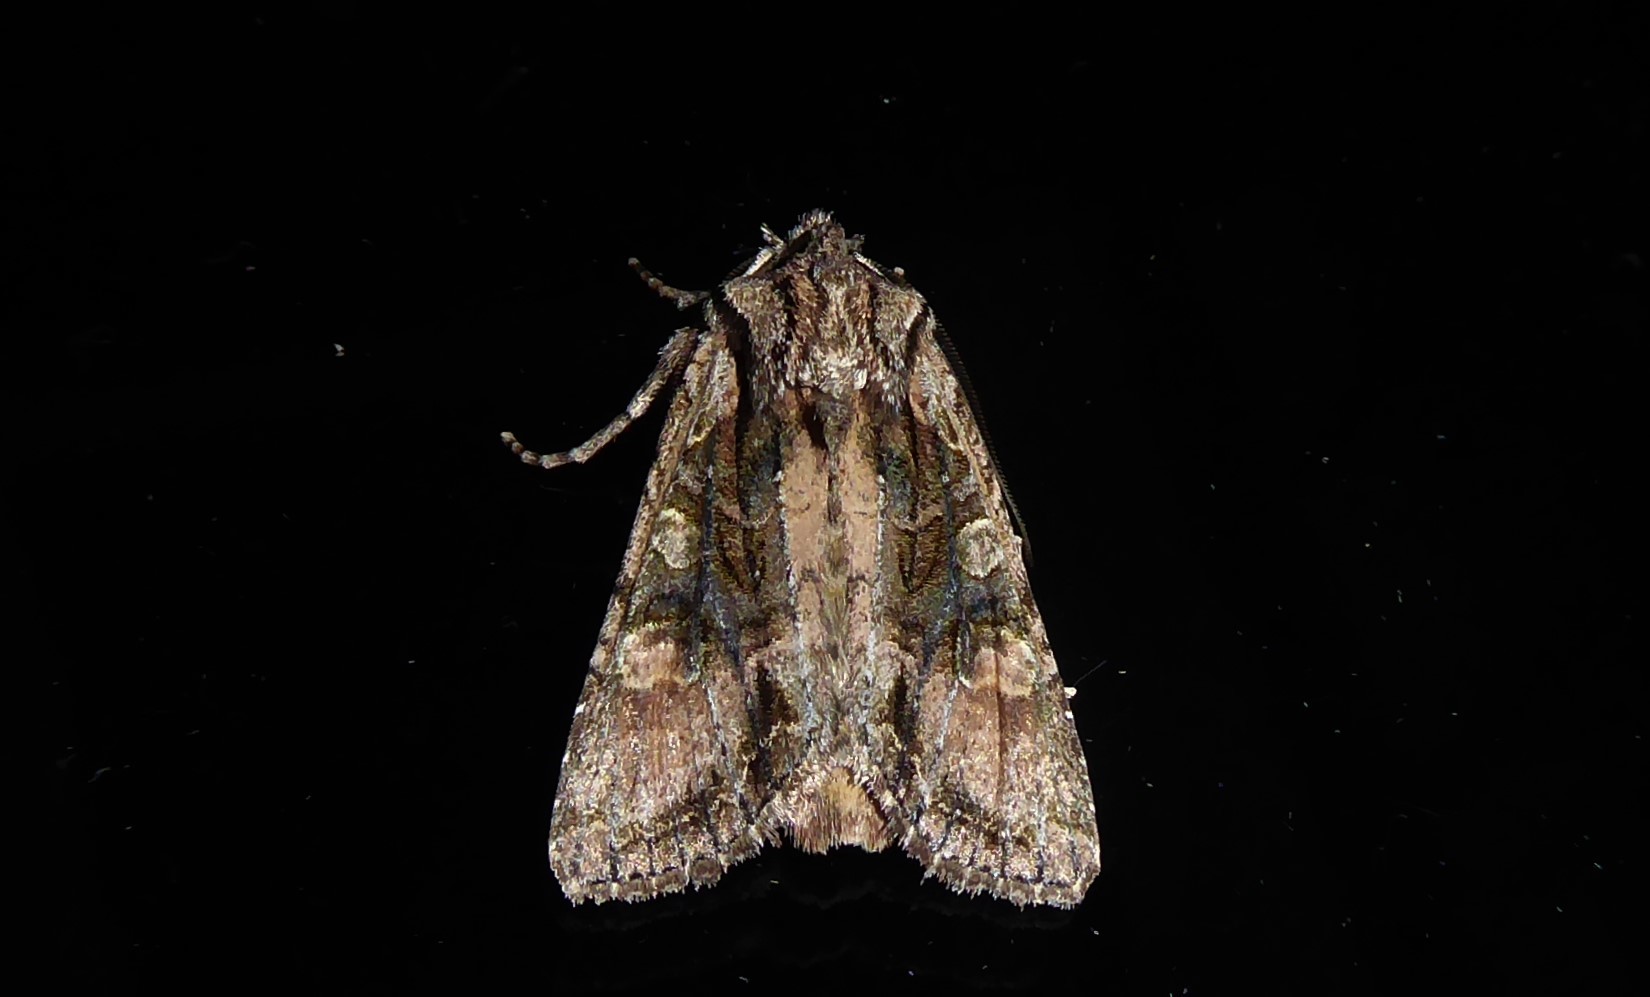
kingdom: Animalia
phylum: Arthropoda
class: Insecta
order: Lepidoptera
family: Noctuidae
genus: Ichneutica
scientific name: Ichneutica mutans
